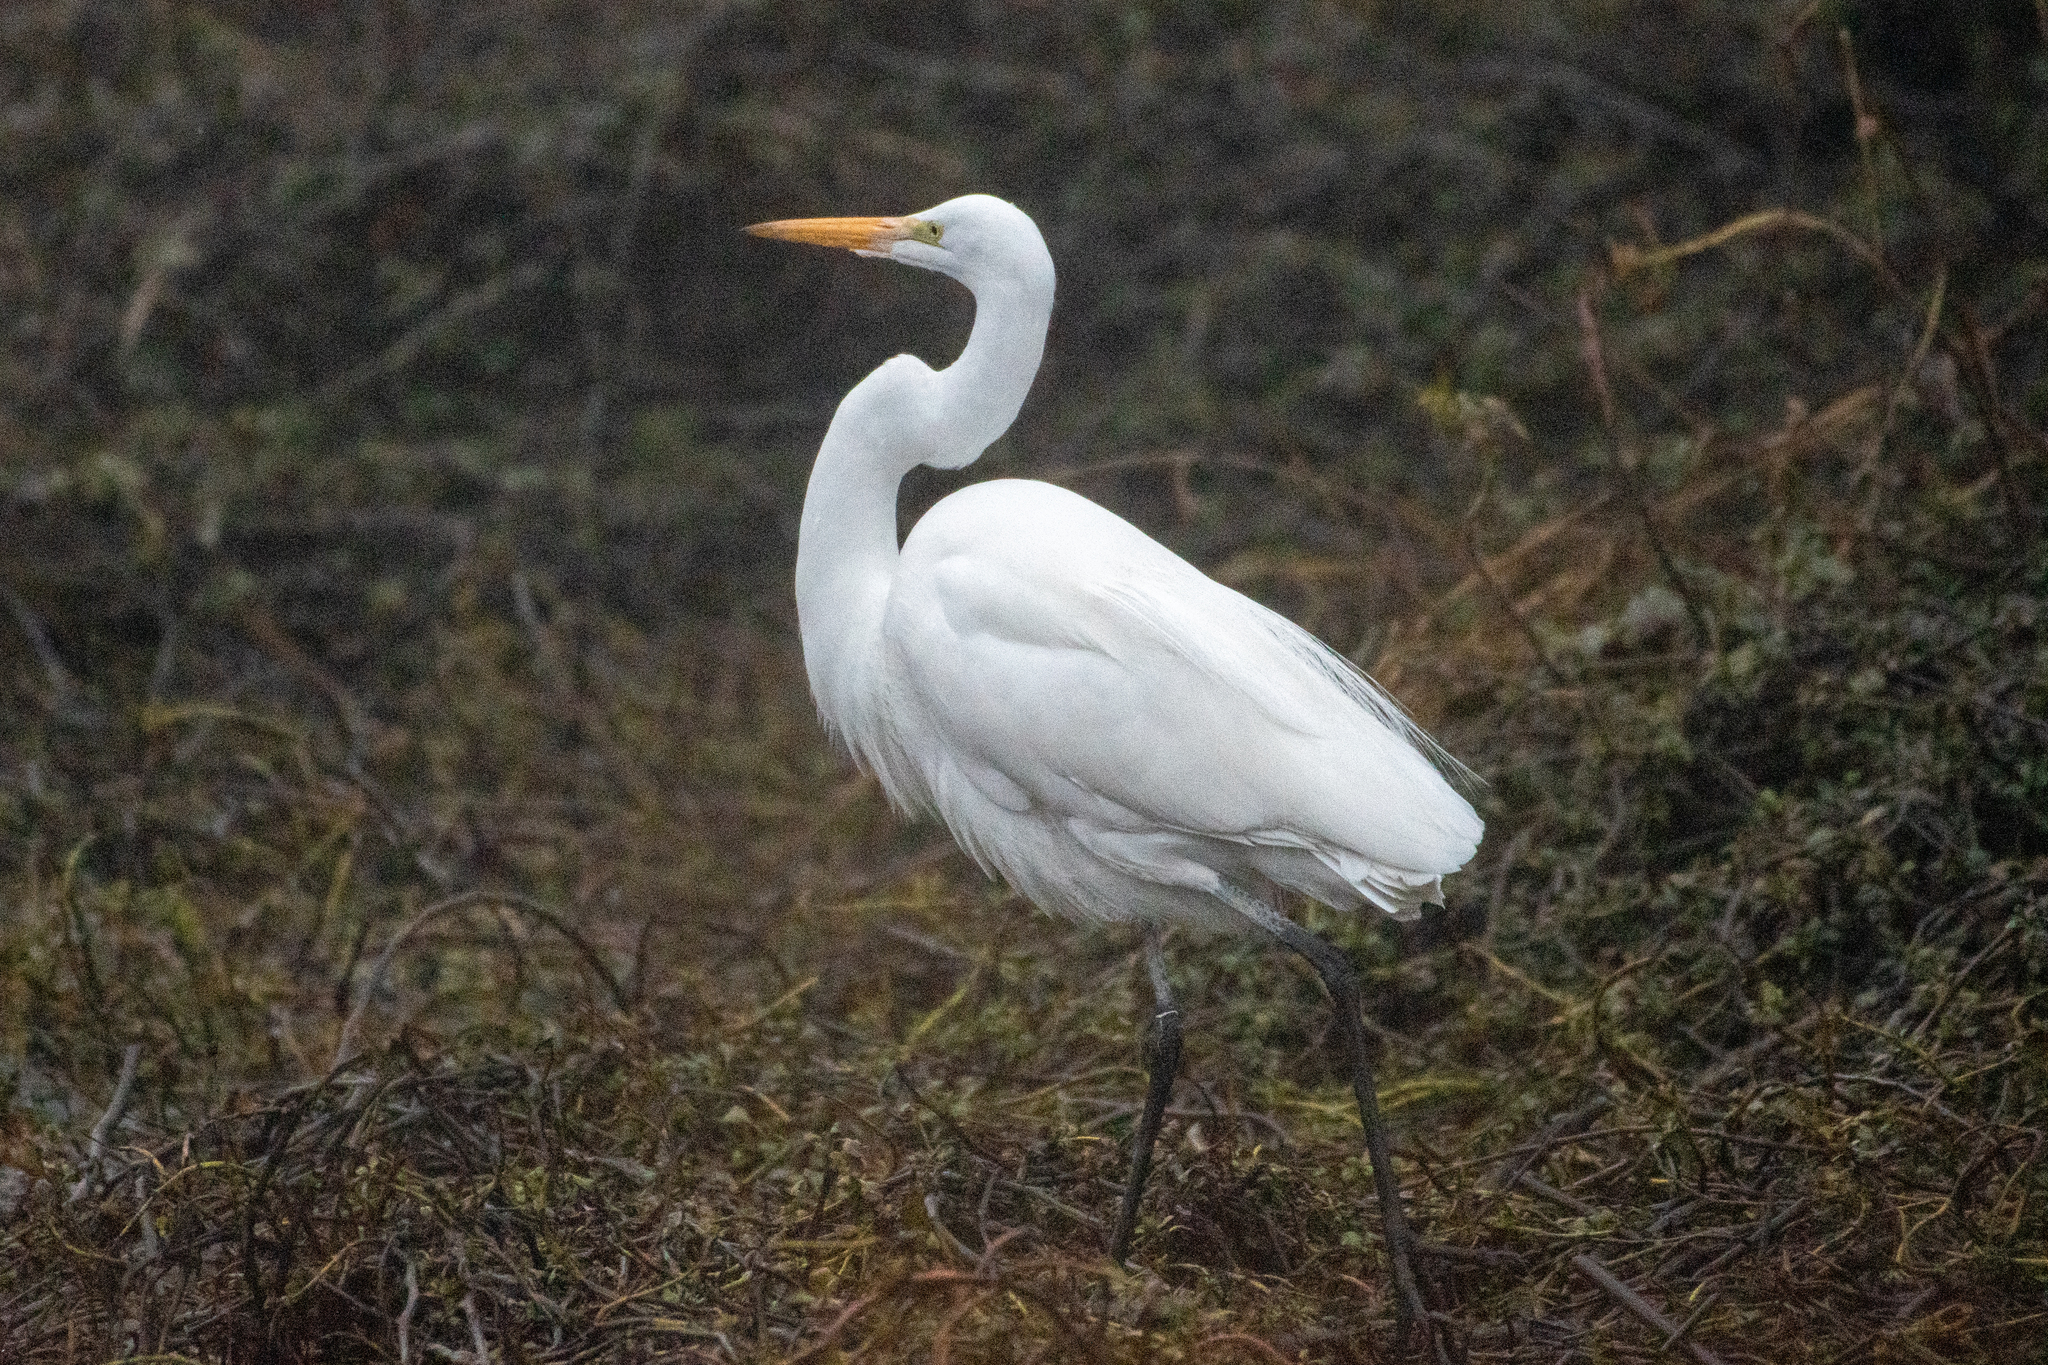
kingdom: Animalia
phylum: Chordata
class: Aves
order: Pelecaniformes
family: Ardeidae
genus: Ardea
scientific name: Ardea alba
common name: Great egret
